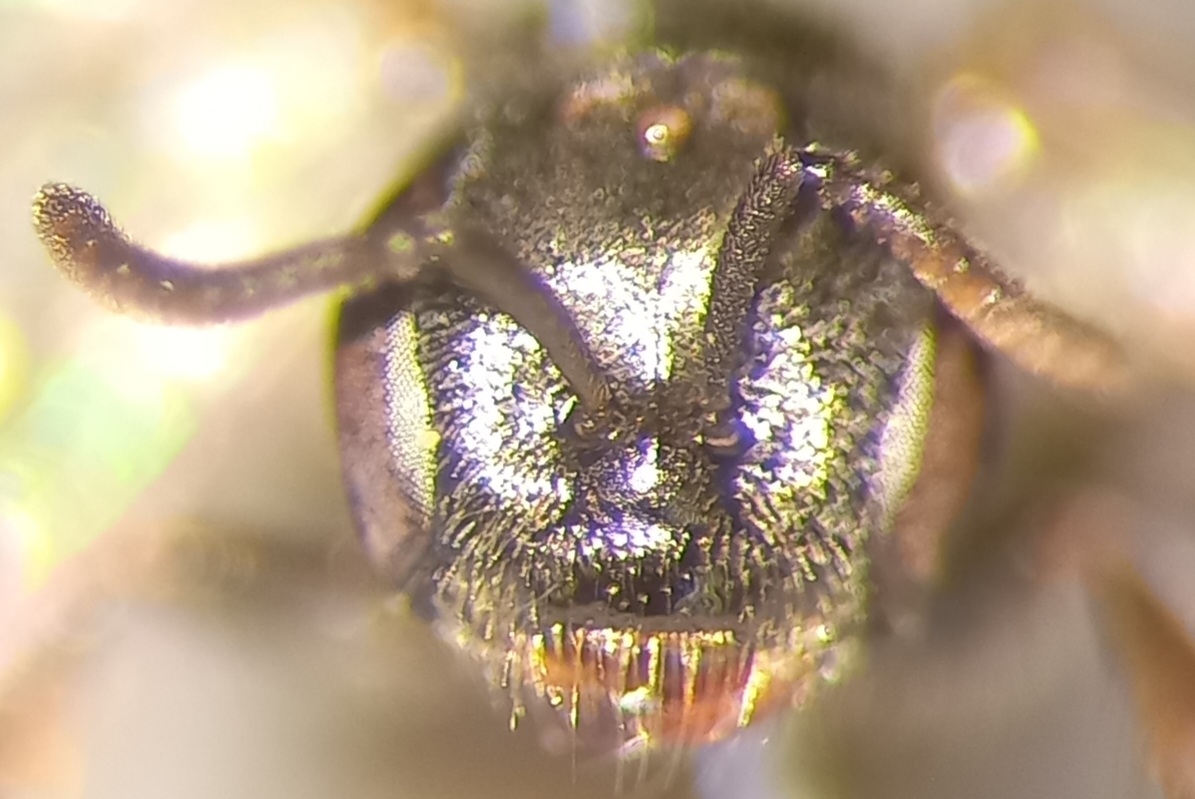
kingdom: Animalia
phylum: Arthropoda
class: Insecta
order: Hymenoptera
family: Halictidae
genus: Lasioglossum
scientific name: Lasioglossum politum
